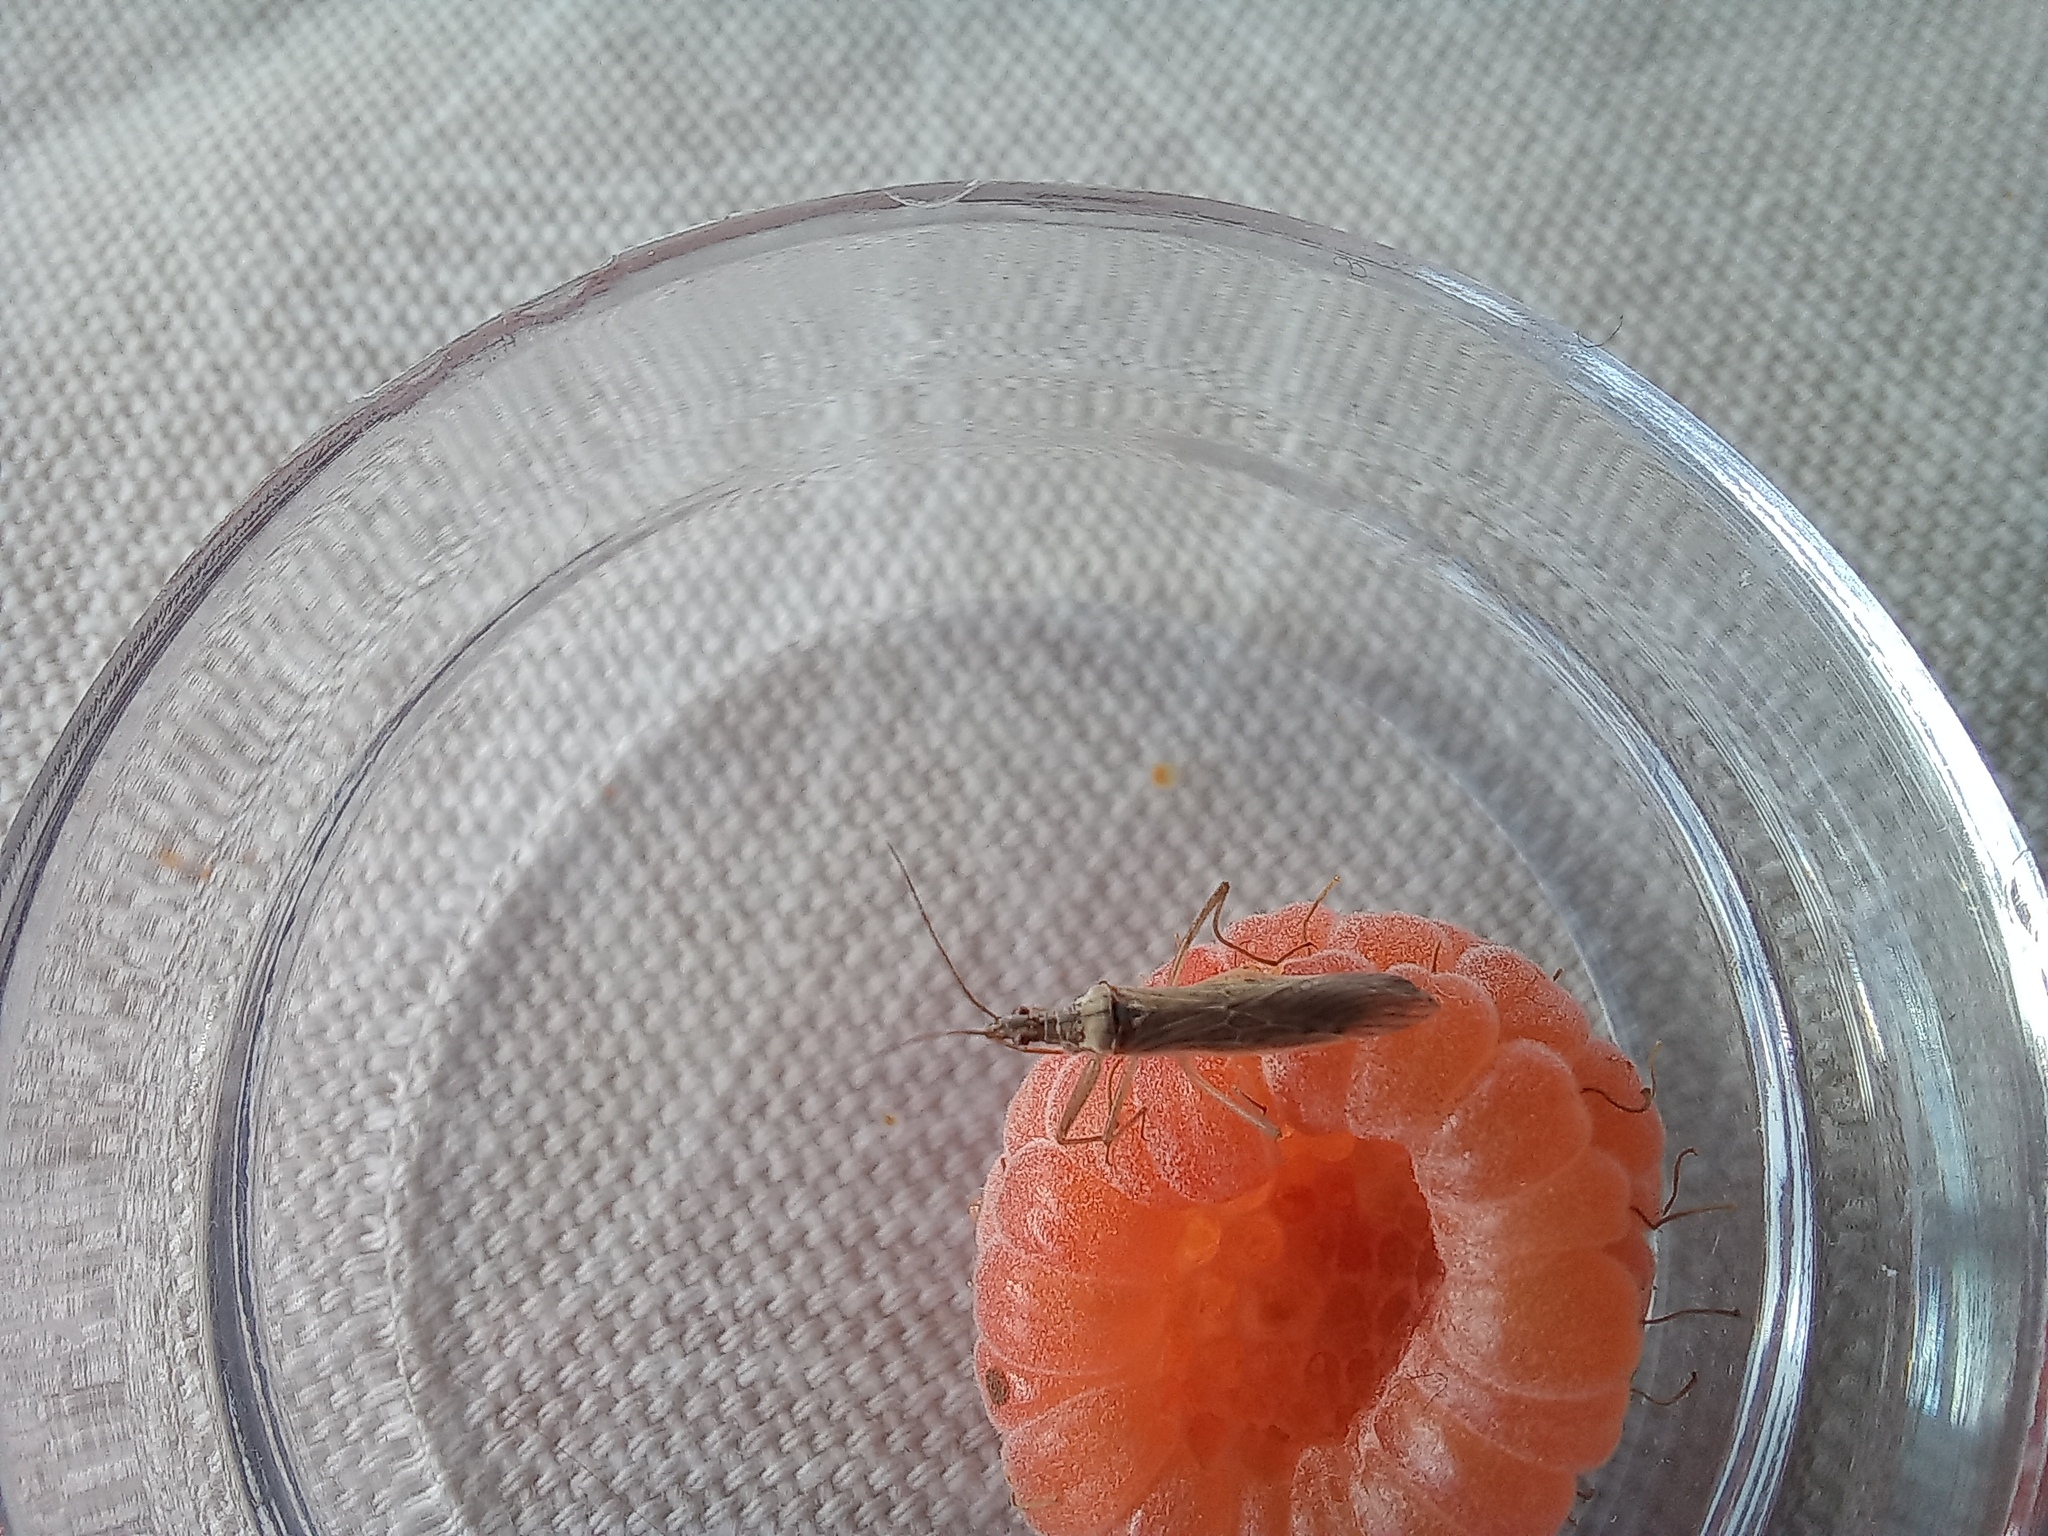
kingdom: Animalia
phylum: Arthropoda
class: Insecta
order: Hemiptera
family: Nabidae
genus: Nabis
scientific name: Nabis kinbergii
